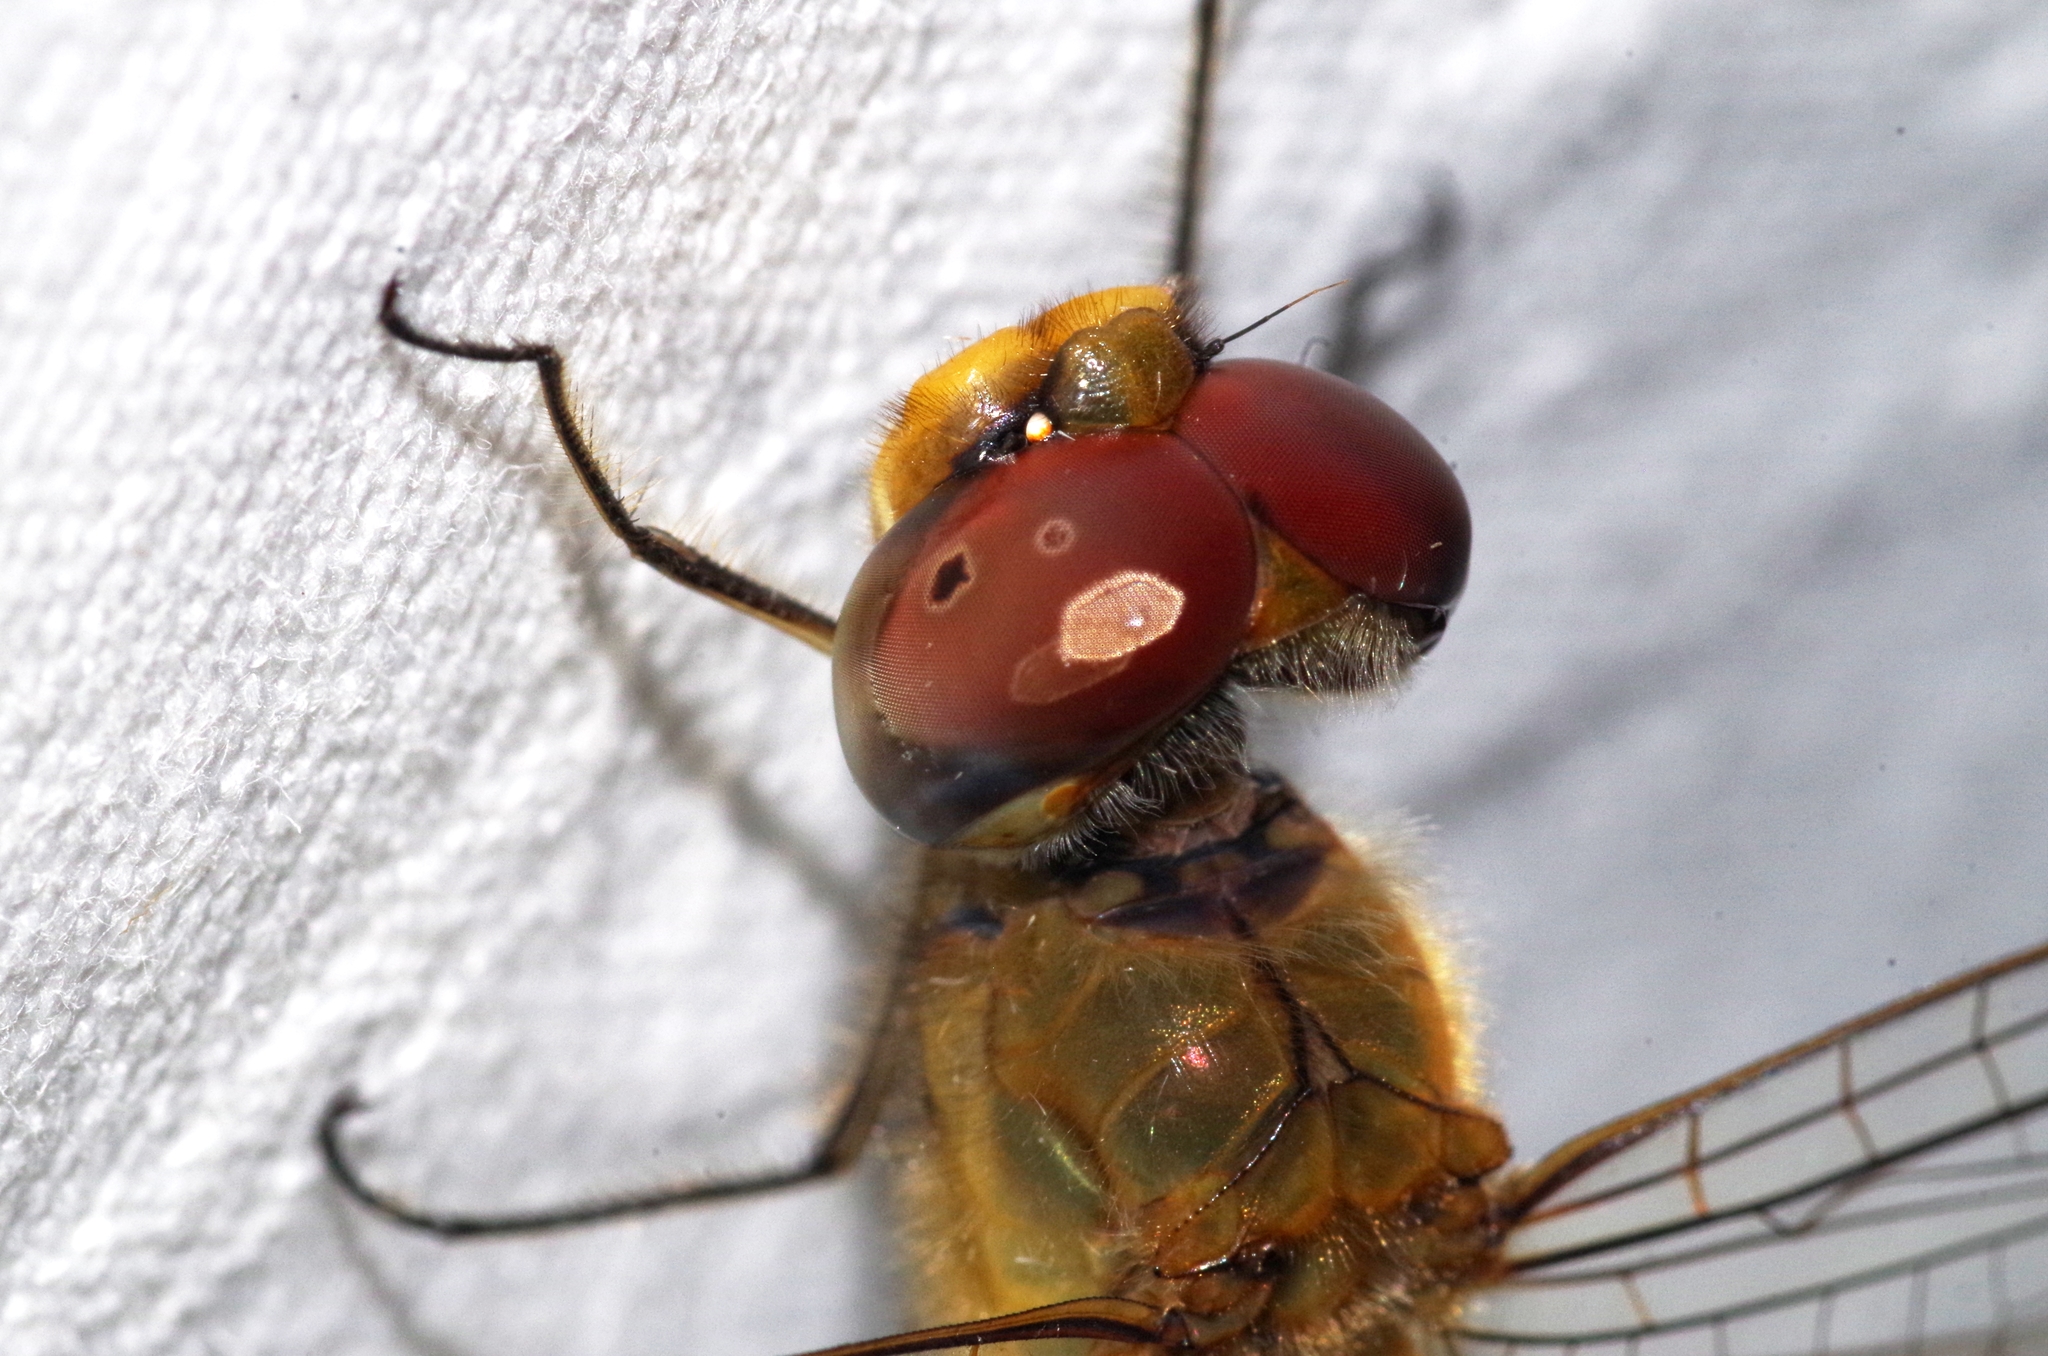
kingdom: Animalia
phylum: Arthropoda
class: Insecta
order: Odonata
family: Libellulidae
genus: Pantala
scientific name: Pantala flavescens
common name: Wandering glider
